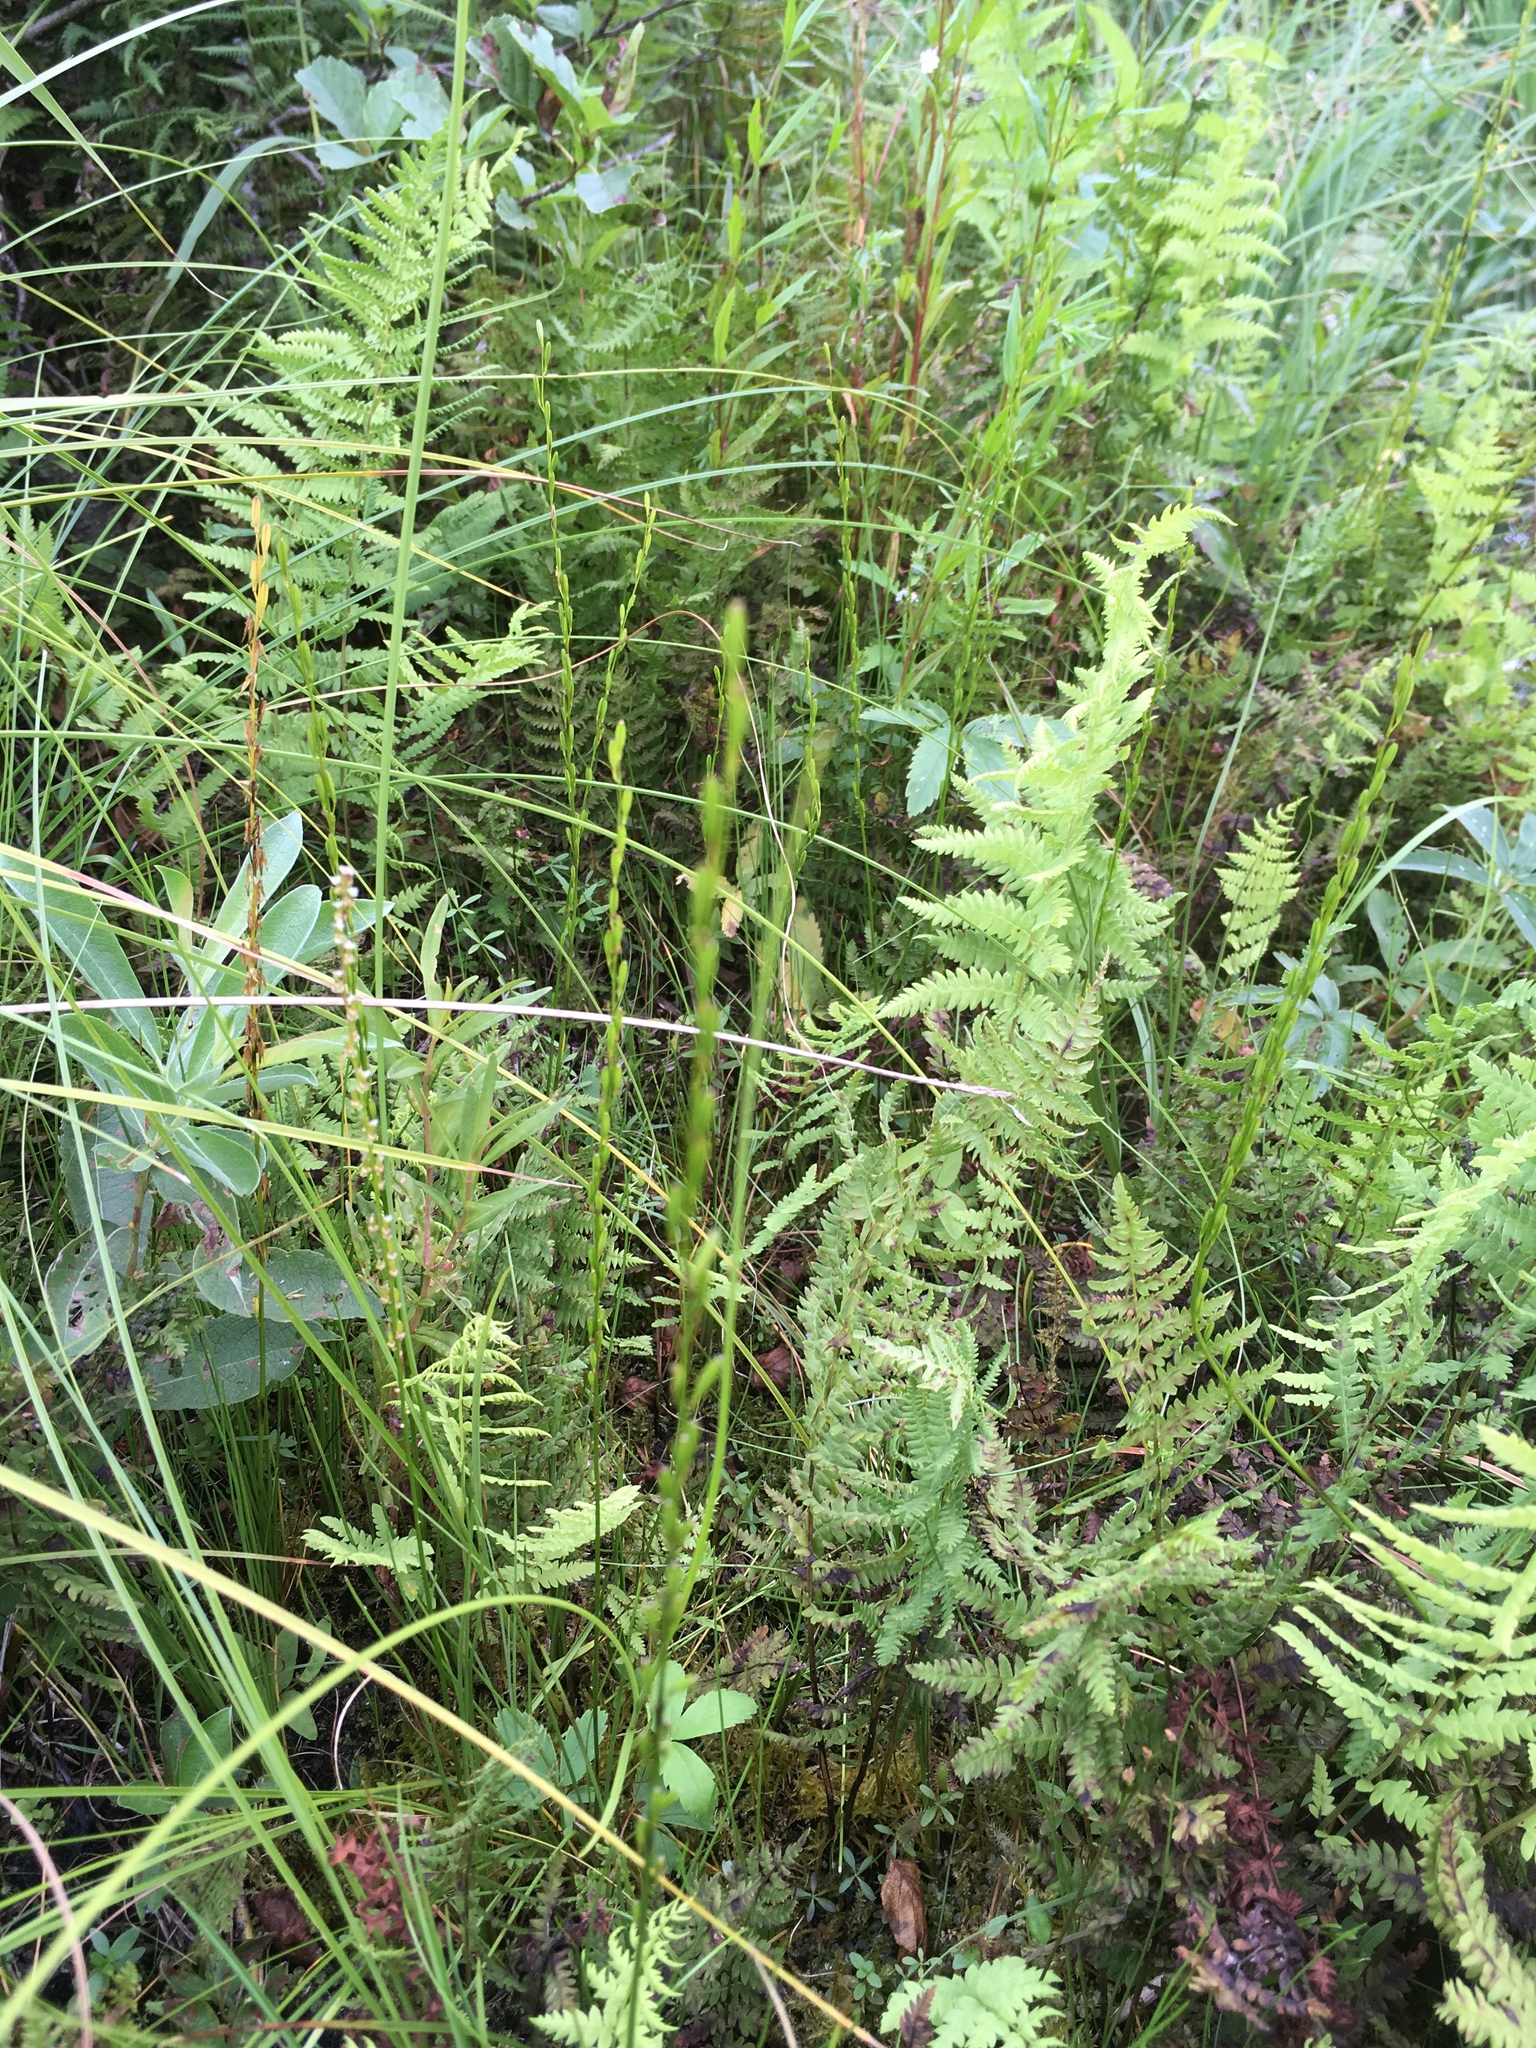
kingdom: Plantae
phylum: Tracheophyta
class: Liliopsida
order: Alismatales
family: Juncaginaceae
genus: Triglochin
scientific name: Triglochin palustris
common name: Marsh arrowgrass
